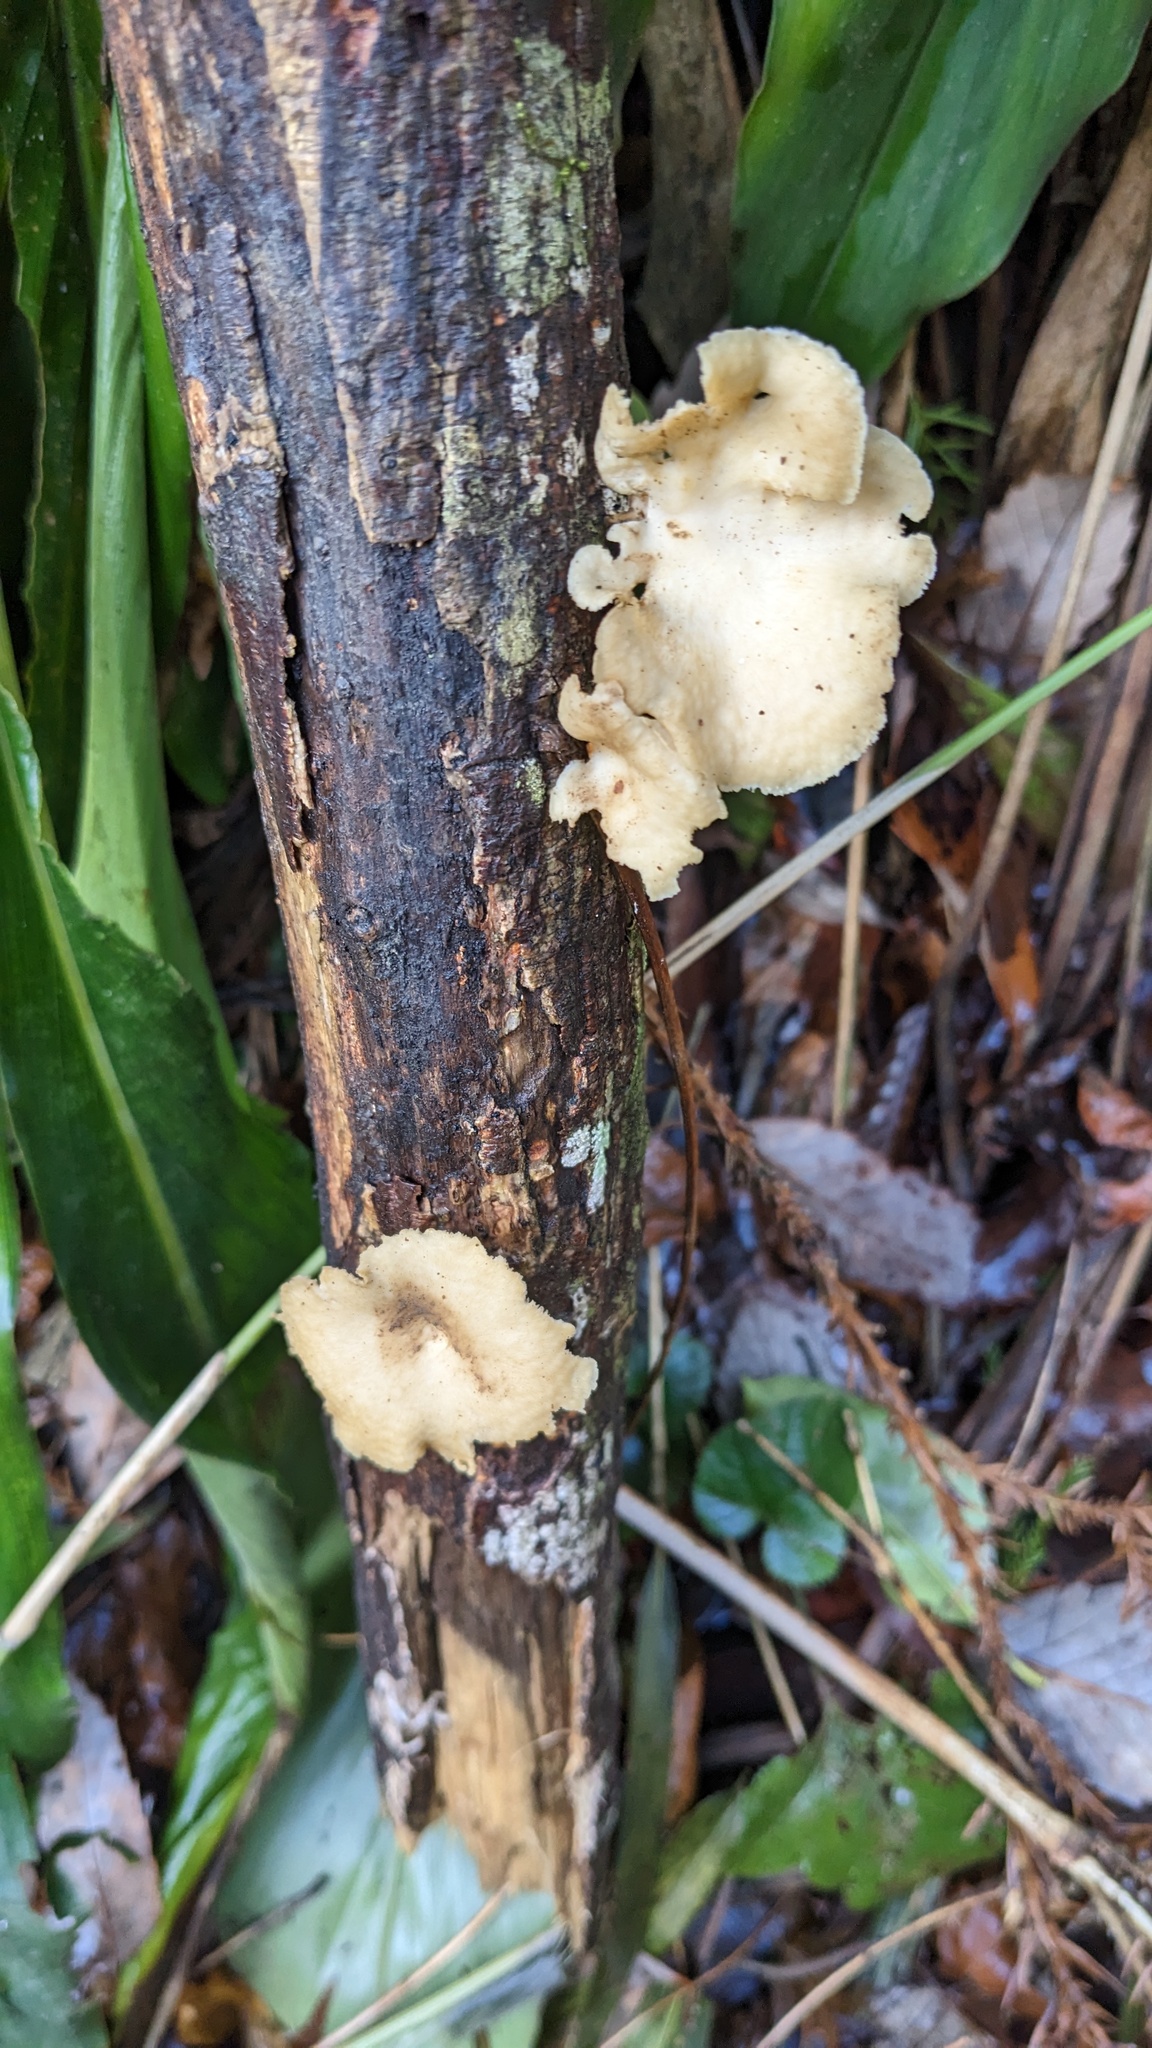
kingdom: Fungi
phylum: Basidiomycota
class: Agaricomycetes
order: Polyporales
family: Polyporaceae
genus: Neofavolus
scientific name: Neofavolus alveolaris
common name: Hexagonal-pored polypore
